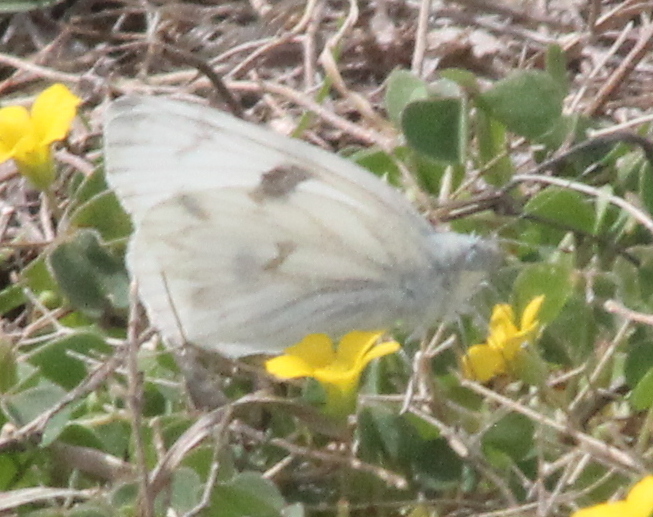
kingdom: Animalia
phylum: Arthropoda
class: Insecta
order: Lepidoptera
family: Pieridae
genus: Pontia
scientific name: Pontia protodice
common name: Checkered white
